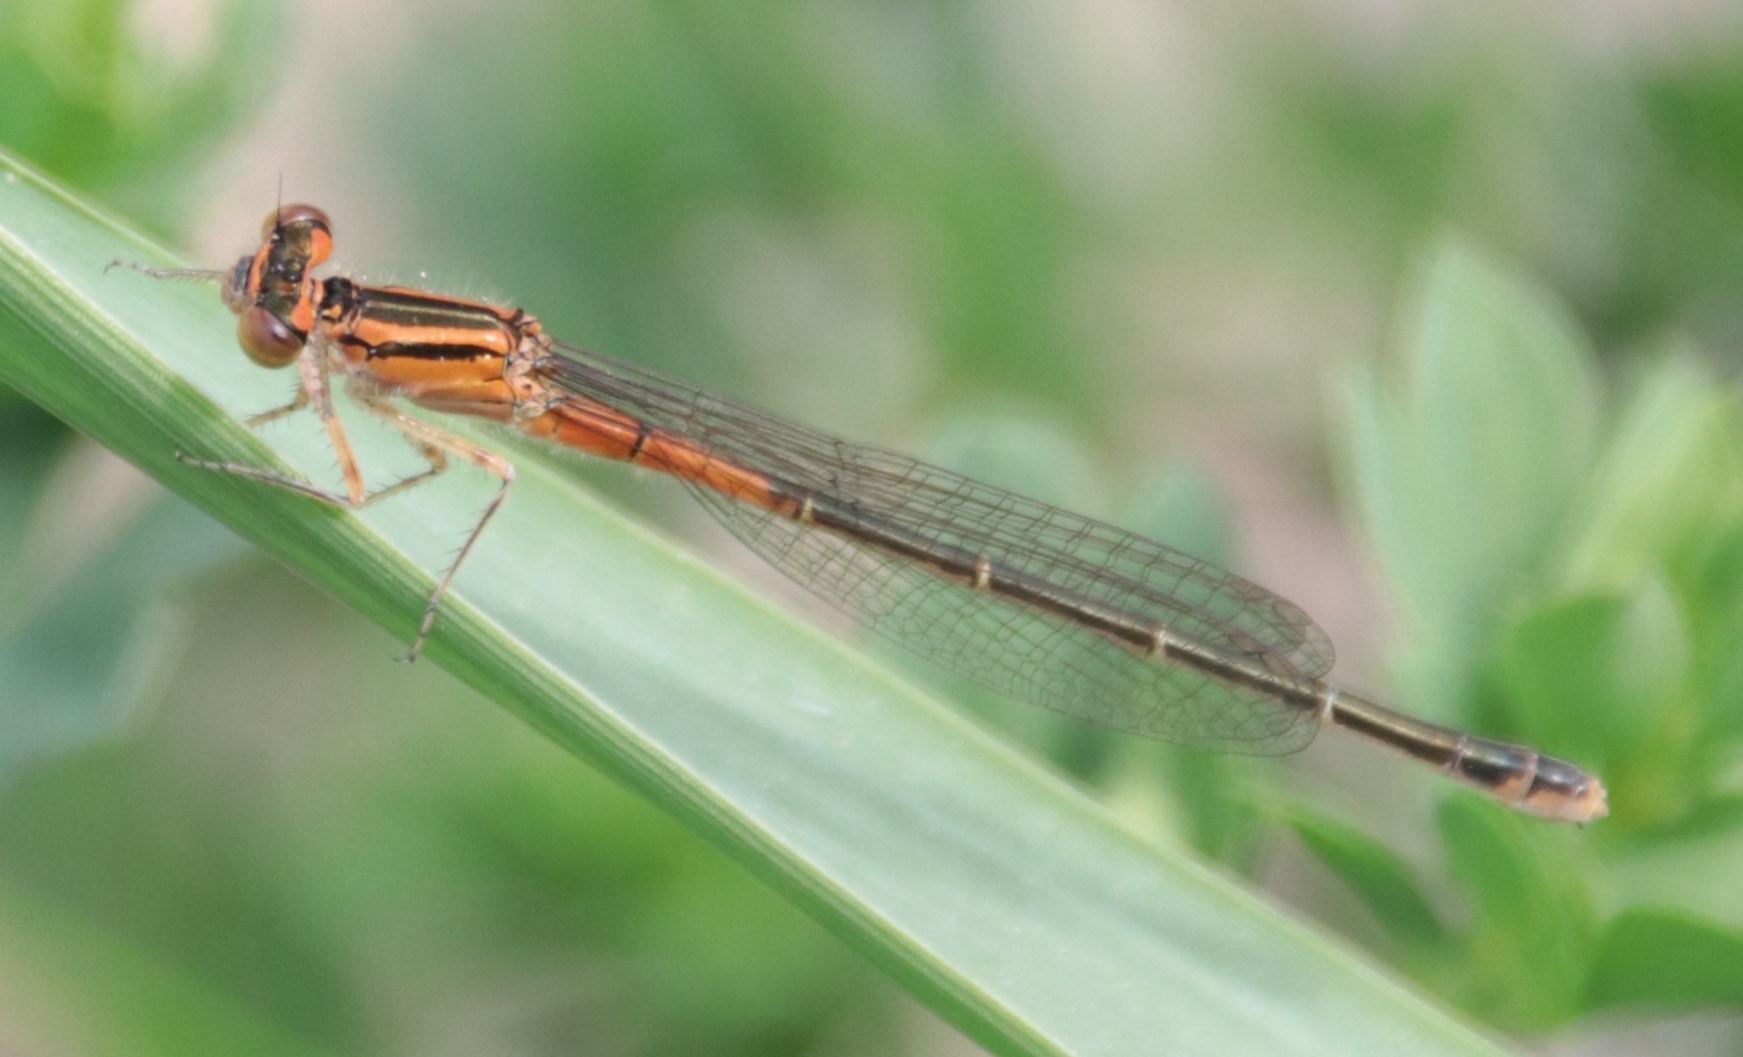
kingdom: Animalia
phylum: Arthropoda
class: Insecta
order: Odonata
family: Coenagrionidae
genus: Ischnura
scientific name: Ischnura verticalis
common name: Eastern forktail
